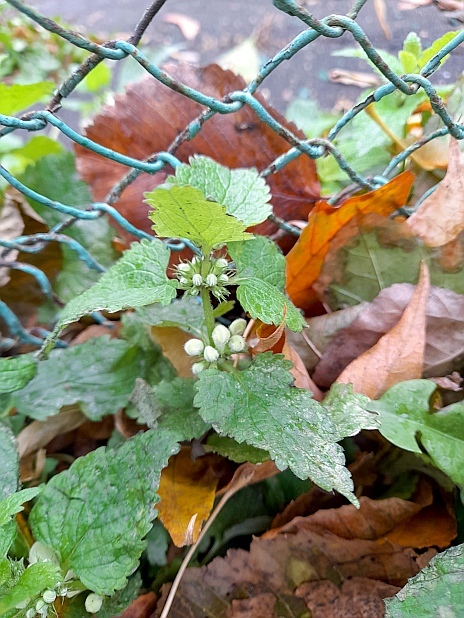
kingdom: Plantae
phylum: Tracheophyta
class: Magnoliopsida
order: Lamiales
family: Lamiaceae
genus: Lamium
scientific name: Lamium album
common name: White dead-nettle
